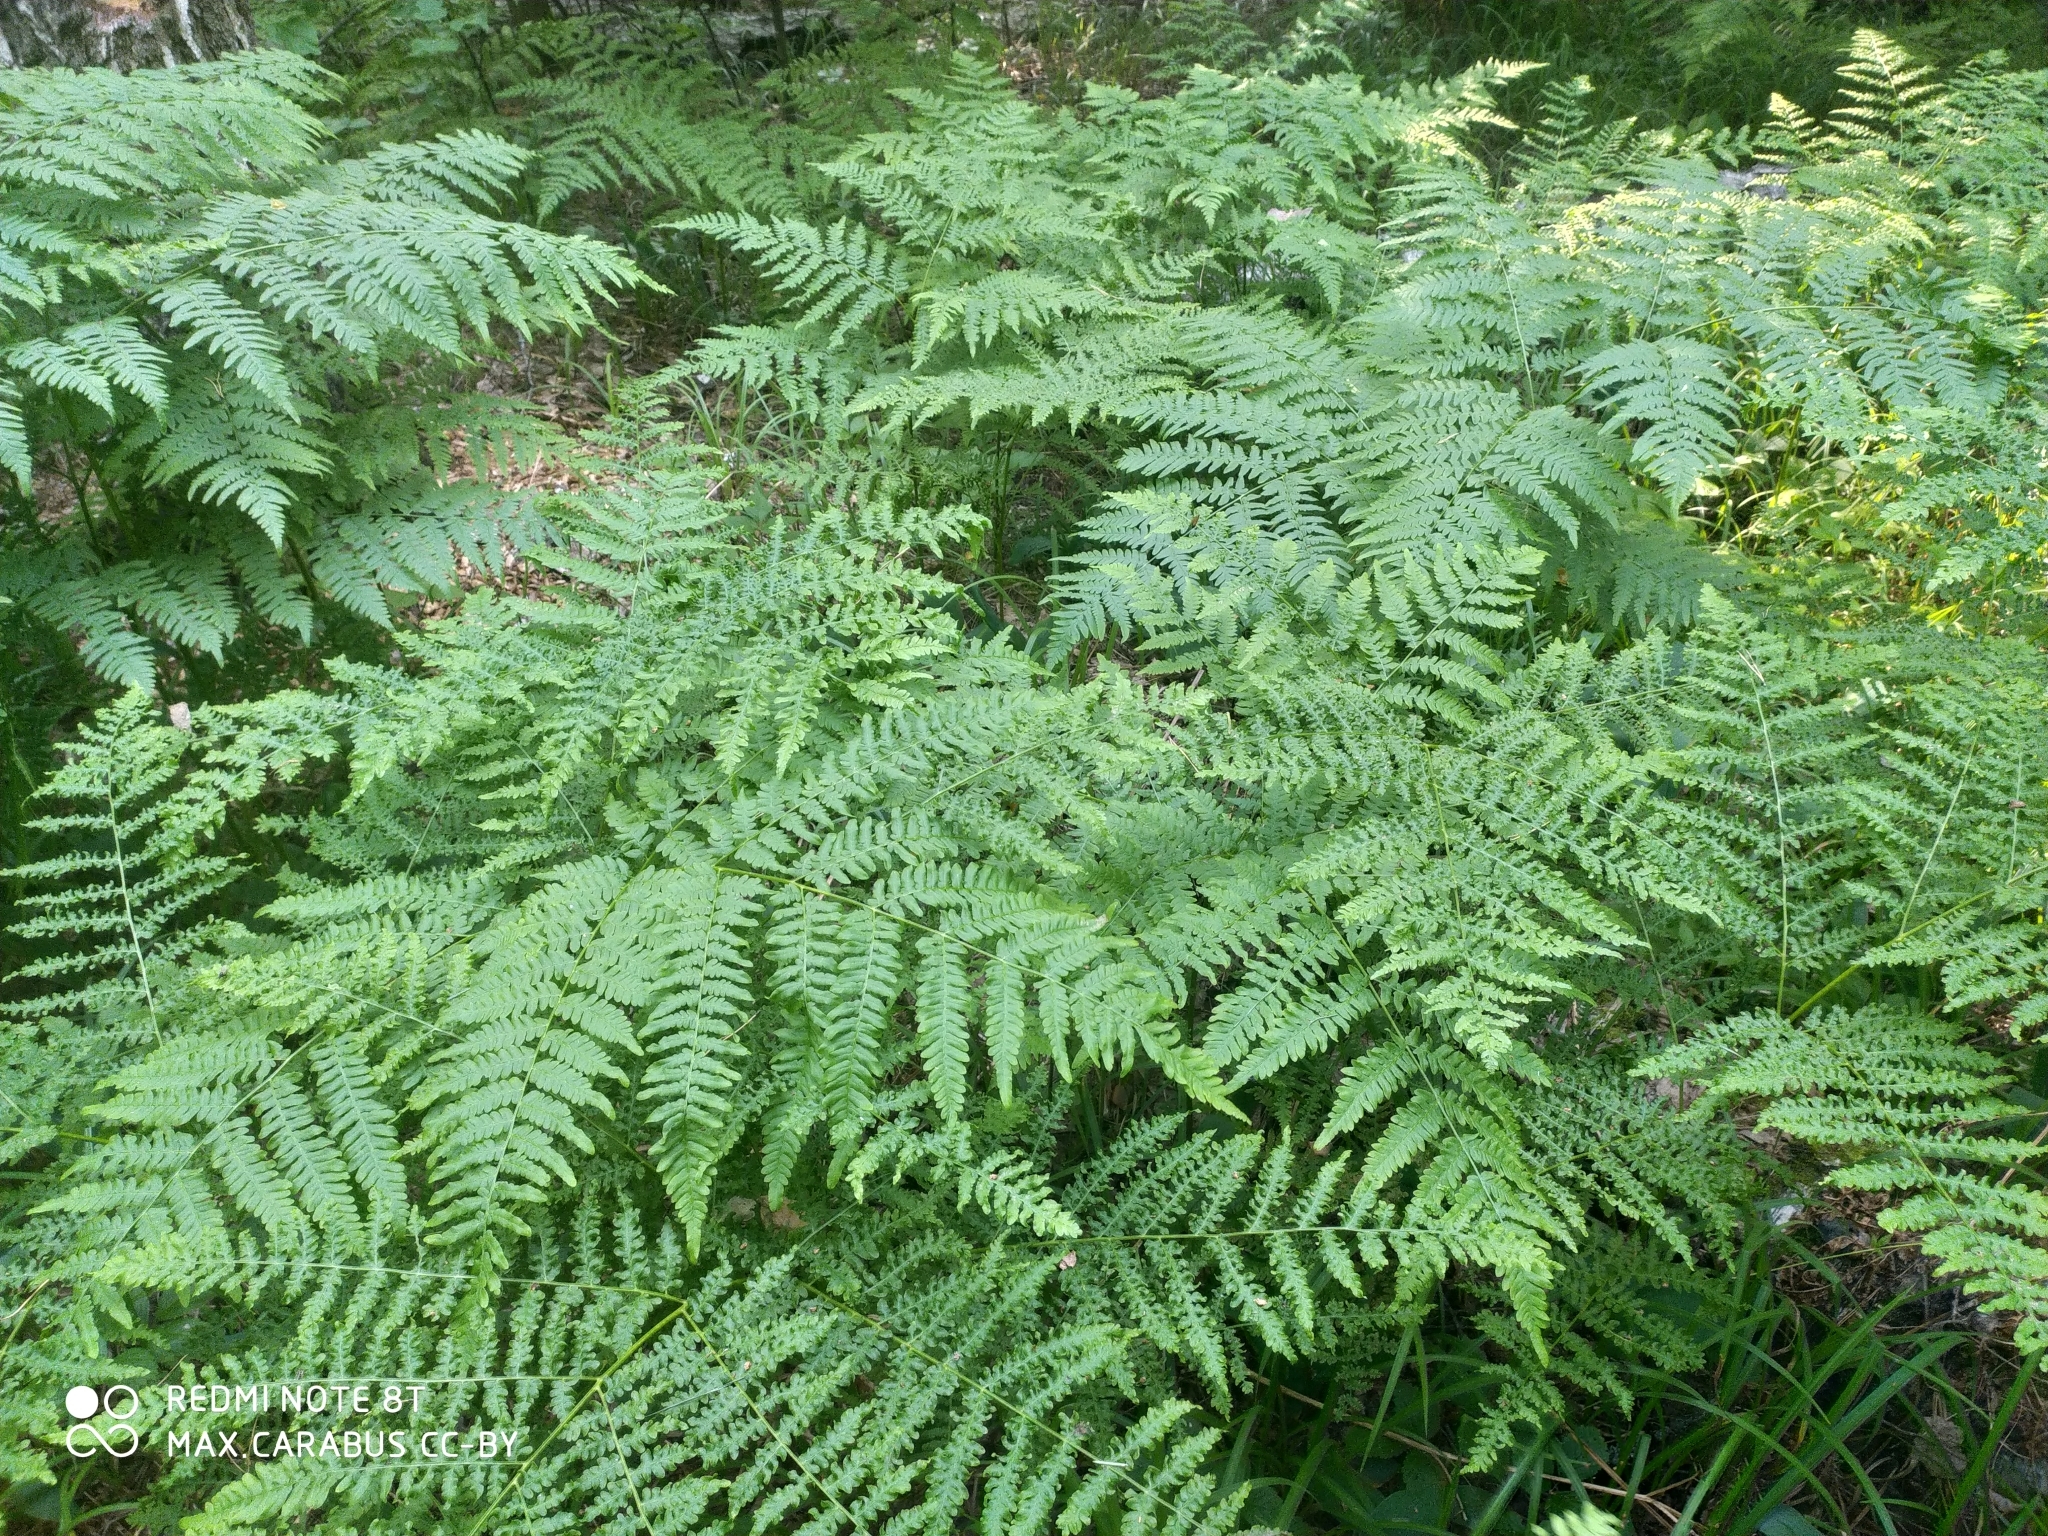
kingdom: Plantae
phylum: Tracheophyta
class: Polypodiopsida
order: Polypodiales
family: Dennstaedtiaceae
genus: Pteridium
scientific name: Pteridium aquilinum
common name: Bracken
